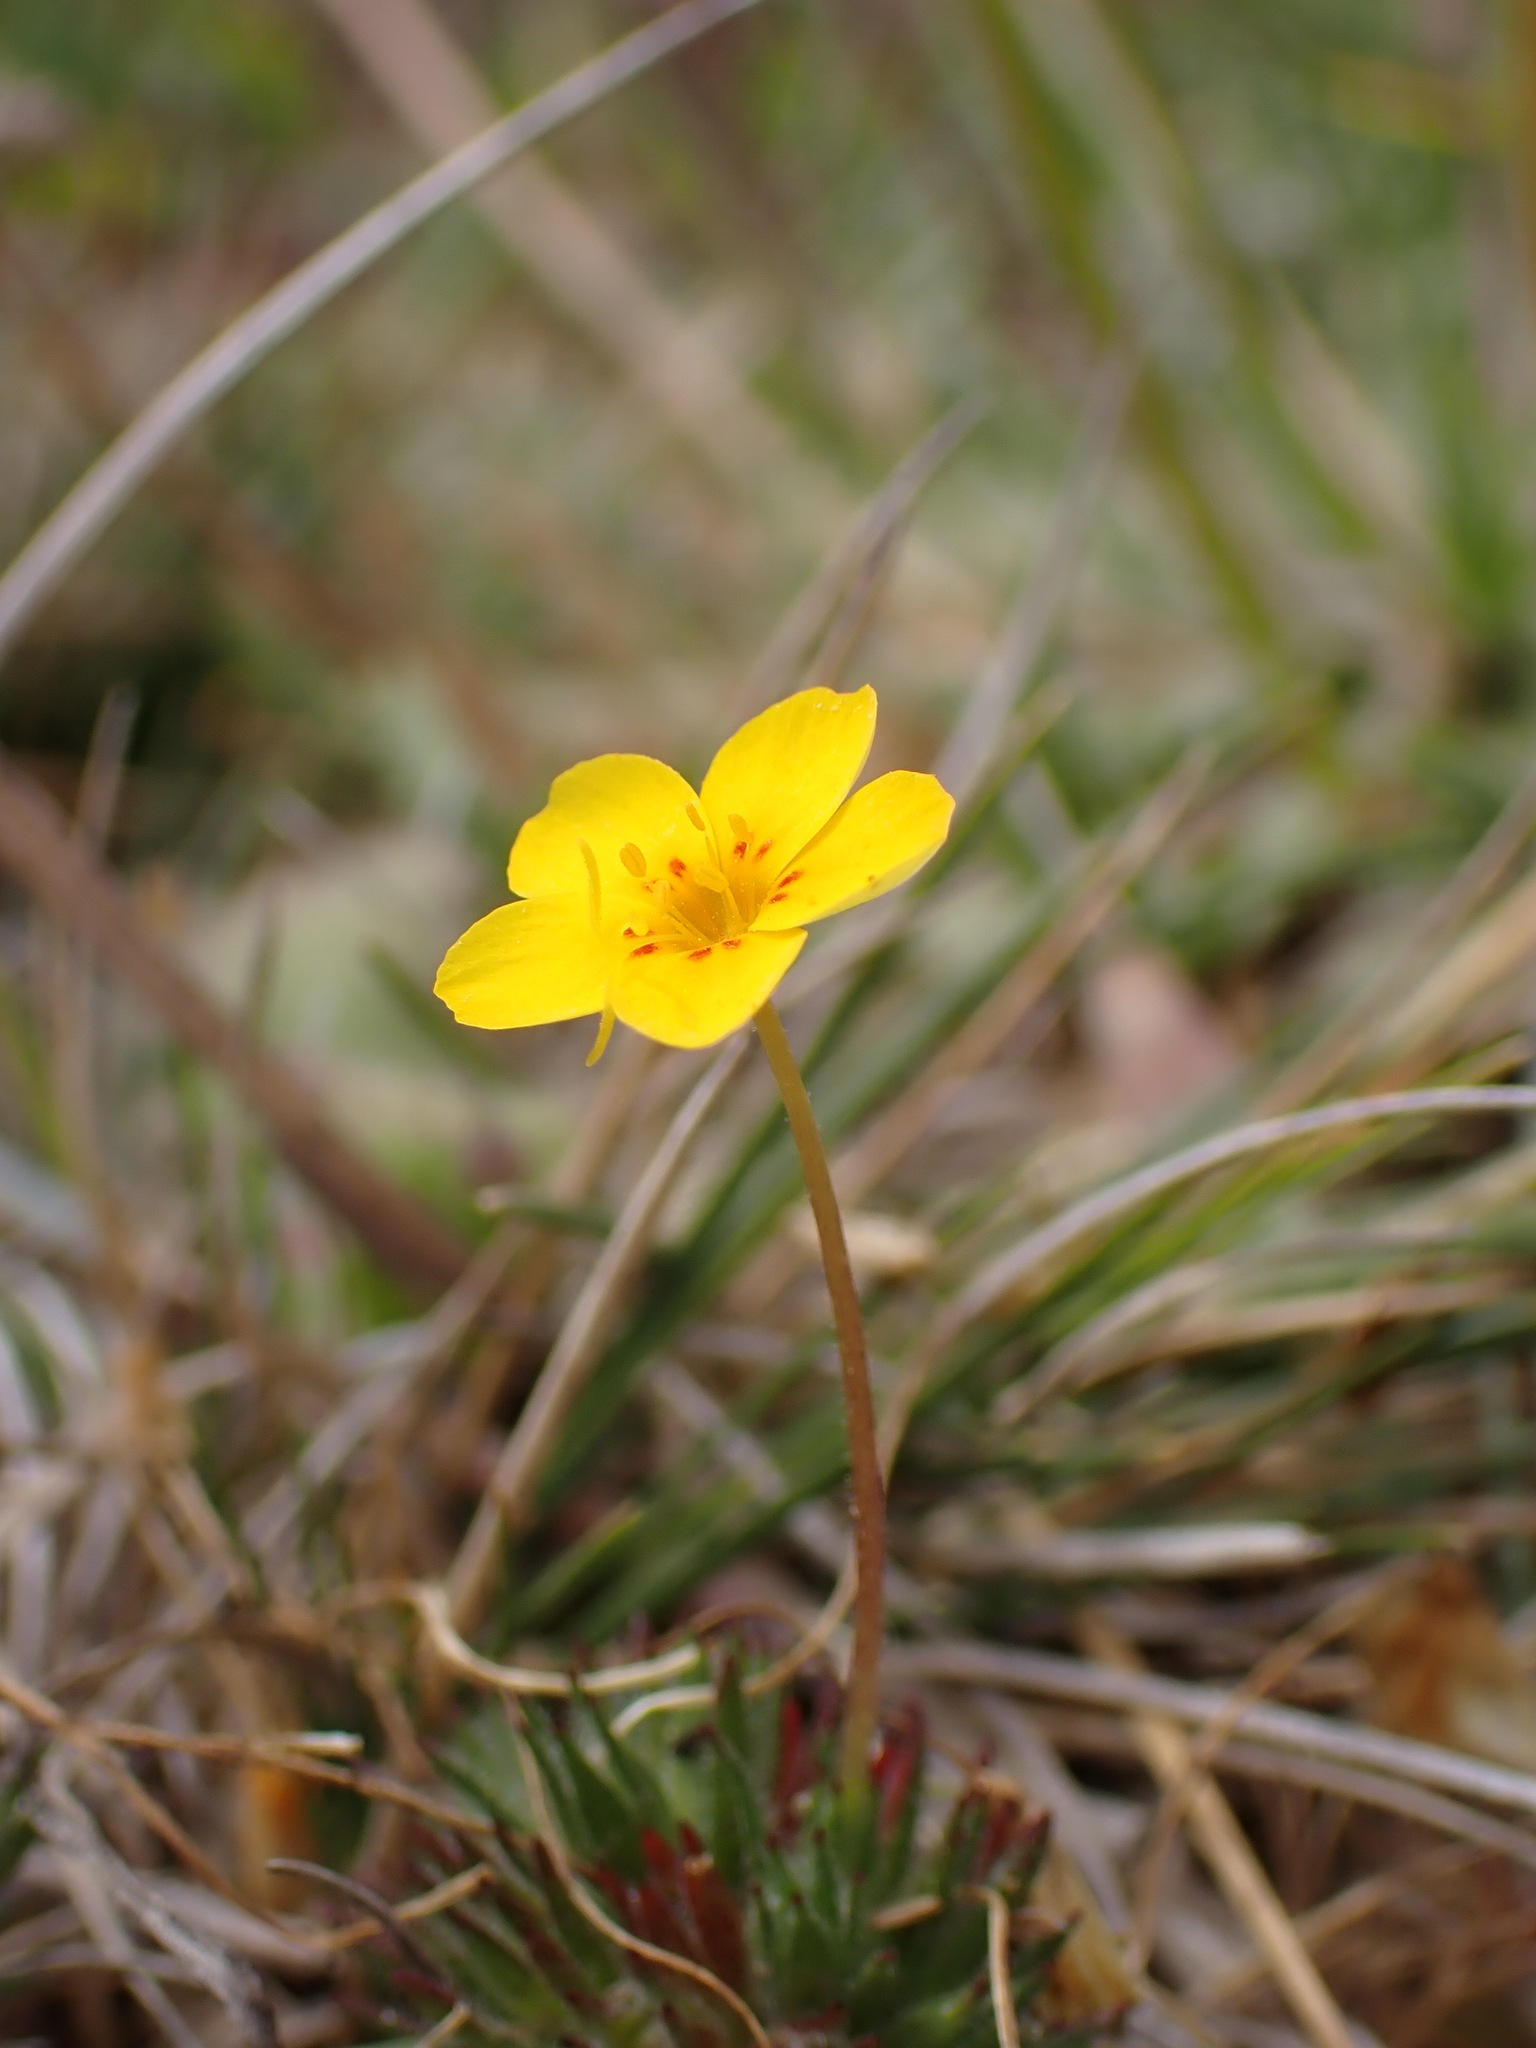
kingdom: Plantae
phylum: Tracheophyta
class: Magnoliopsida
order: Ericales
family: Polemoniaceae
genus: Leptosiphon
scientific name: Leptosiphon croceus
